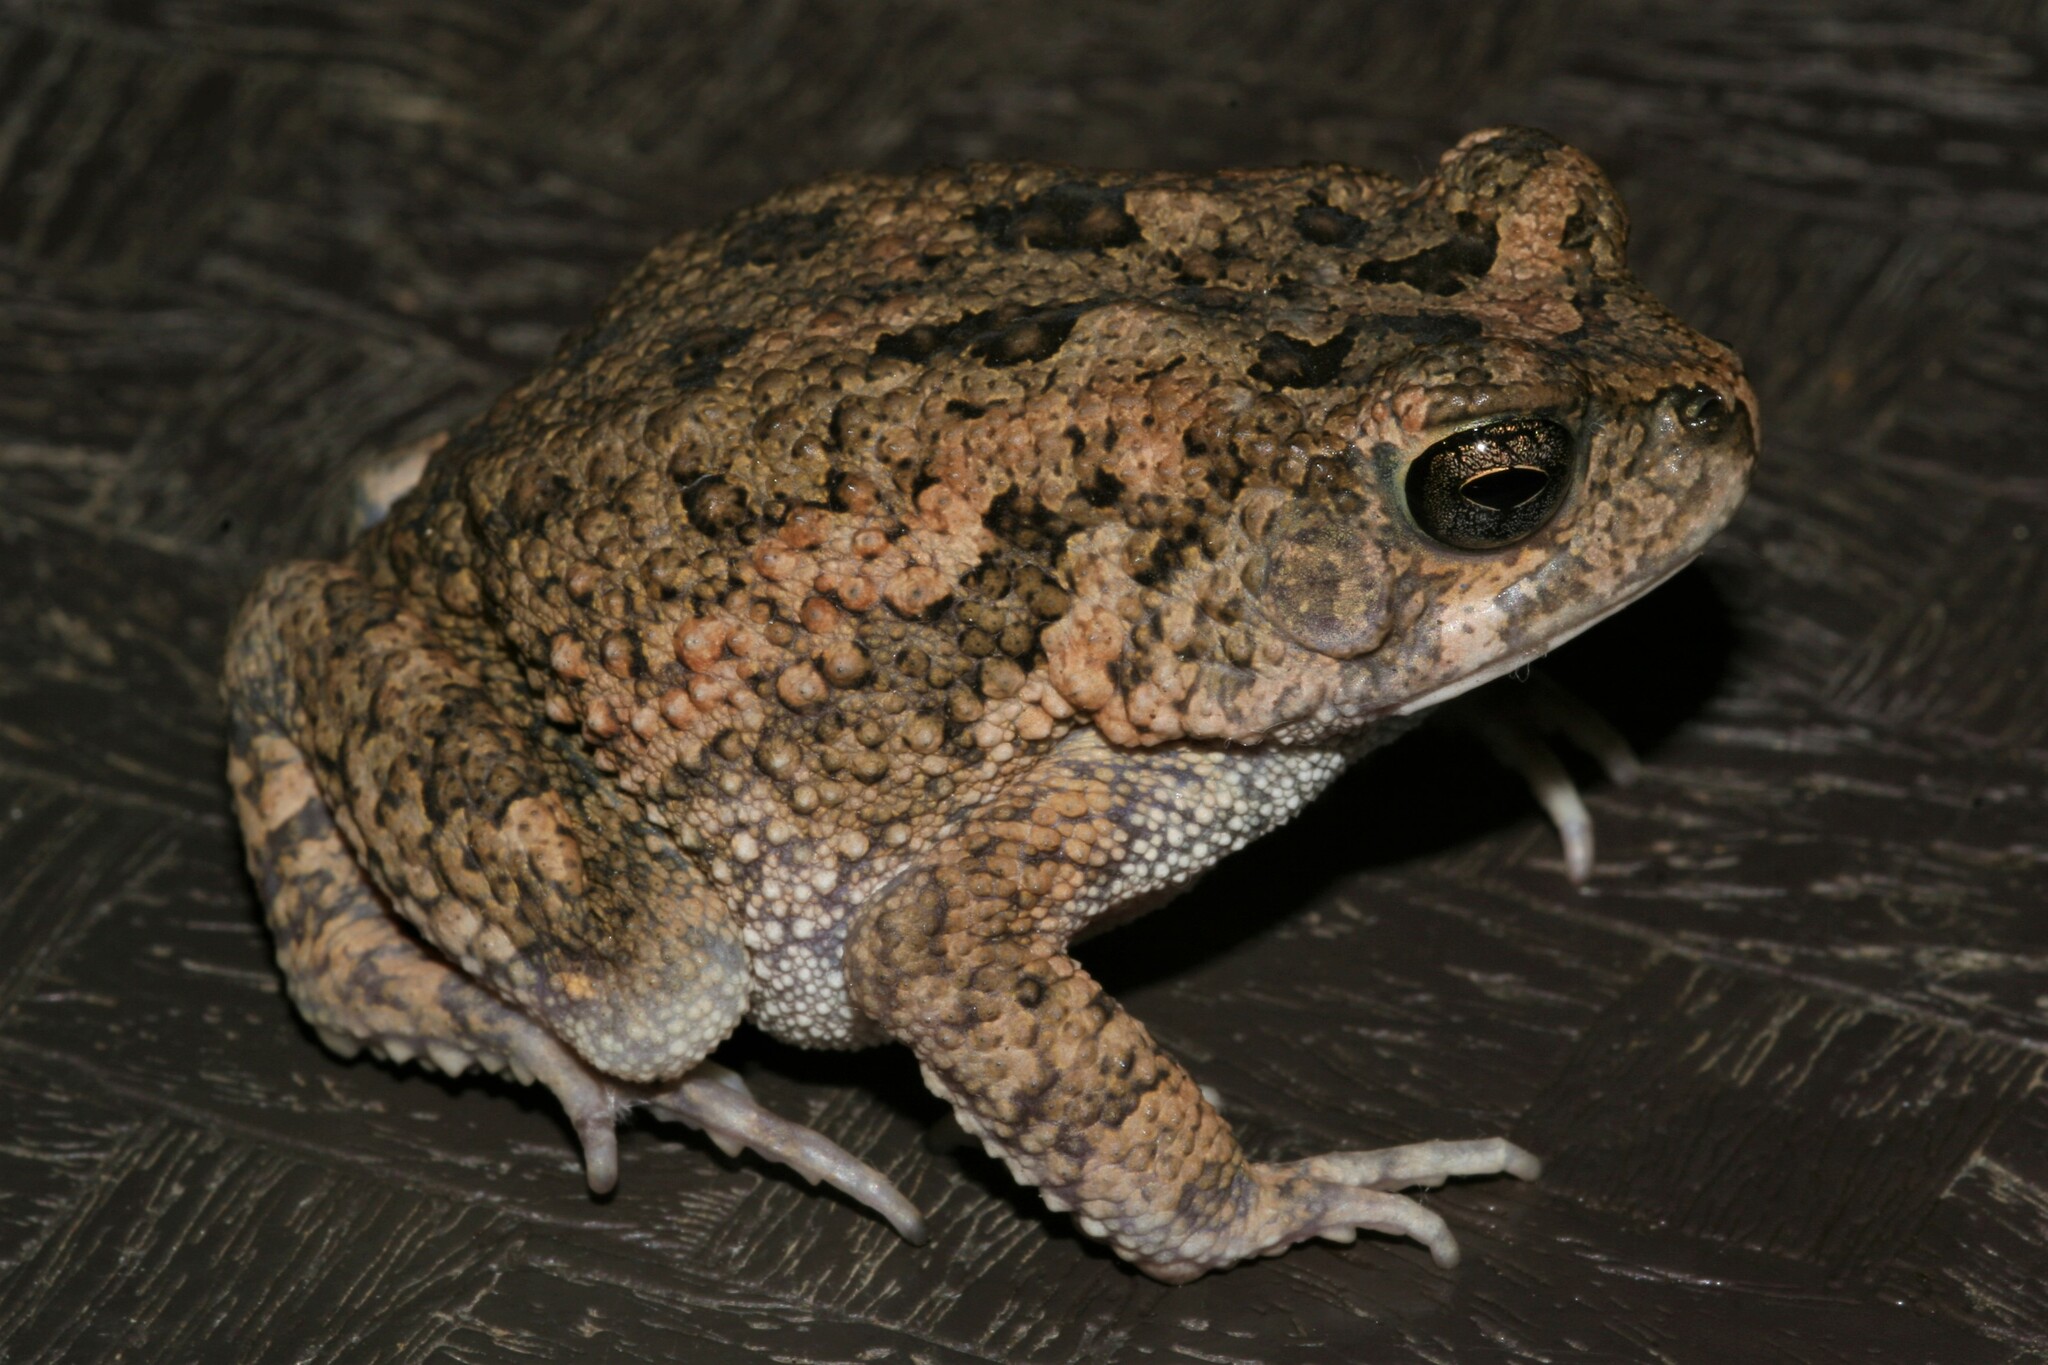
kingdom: Animalia
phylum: Chordata
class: Amphibia
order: Anura
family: Bufonidae
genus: Sclerophrys
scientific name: Sclerophrys pusilla
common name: Merten's striped toad
